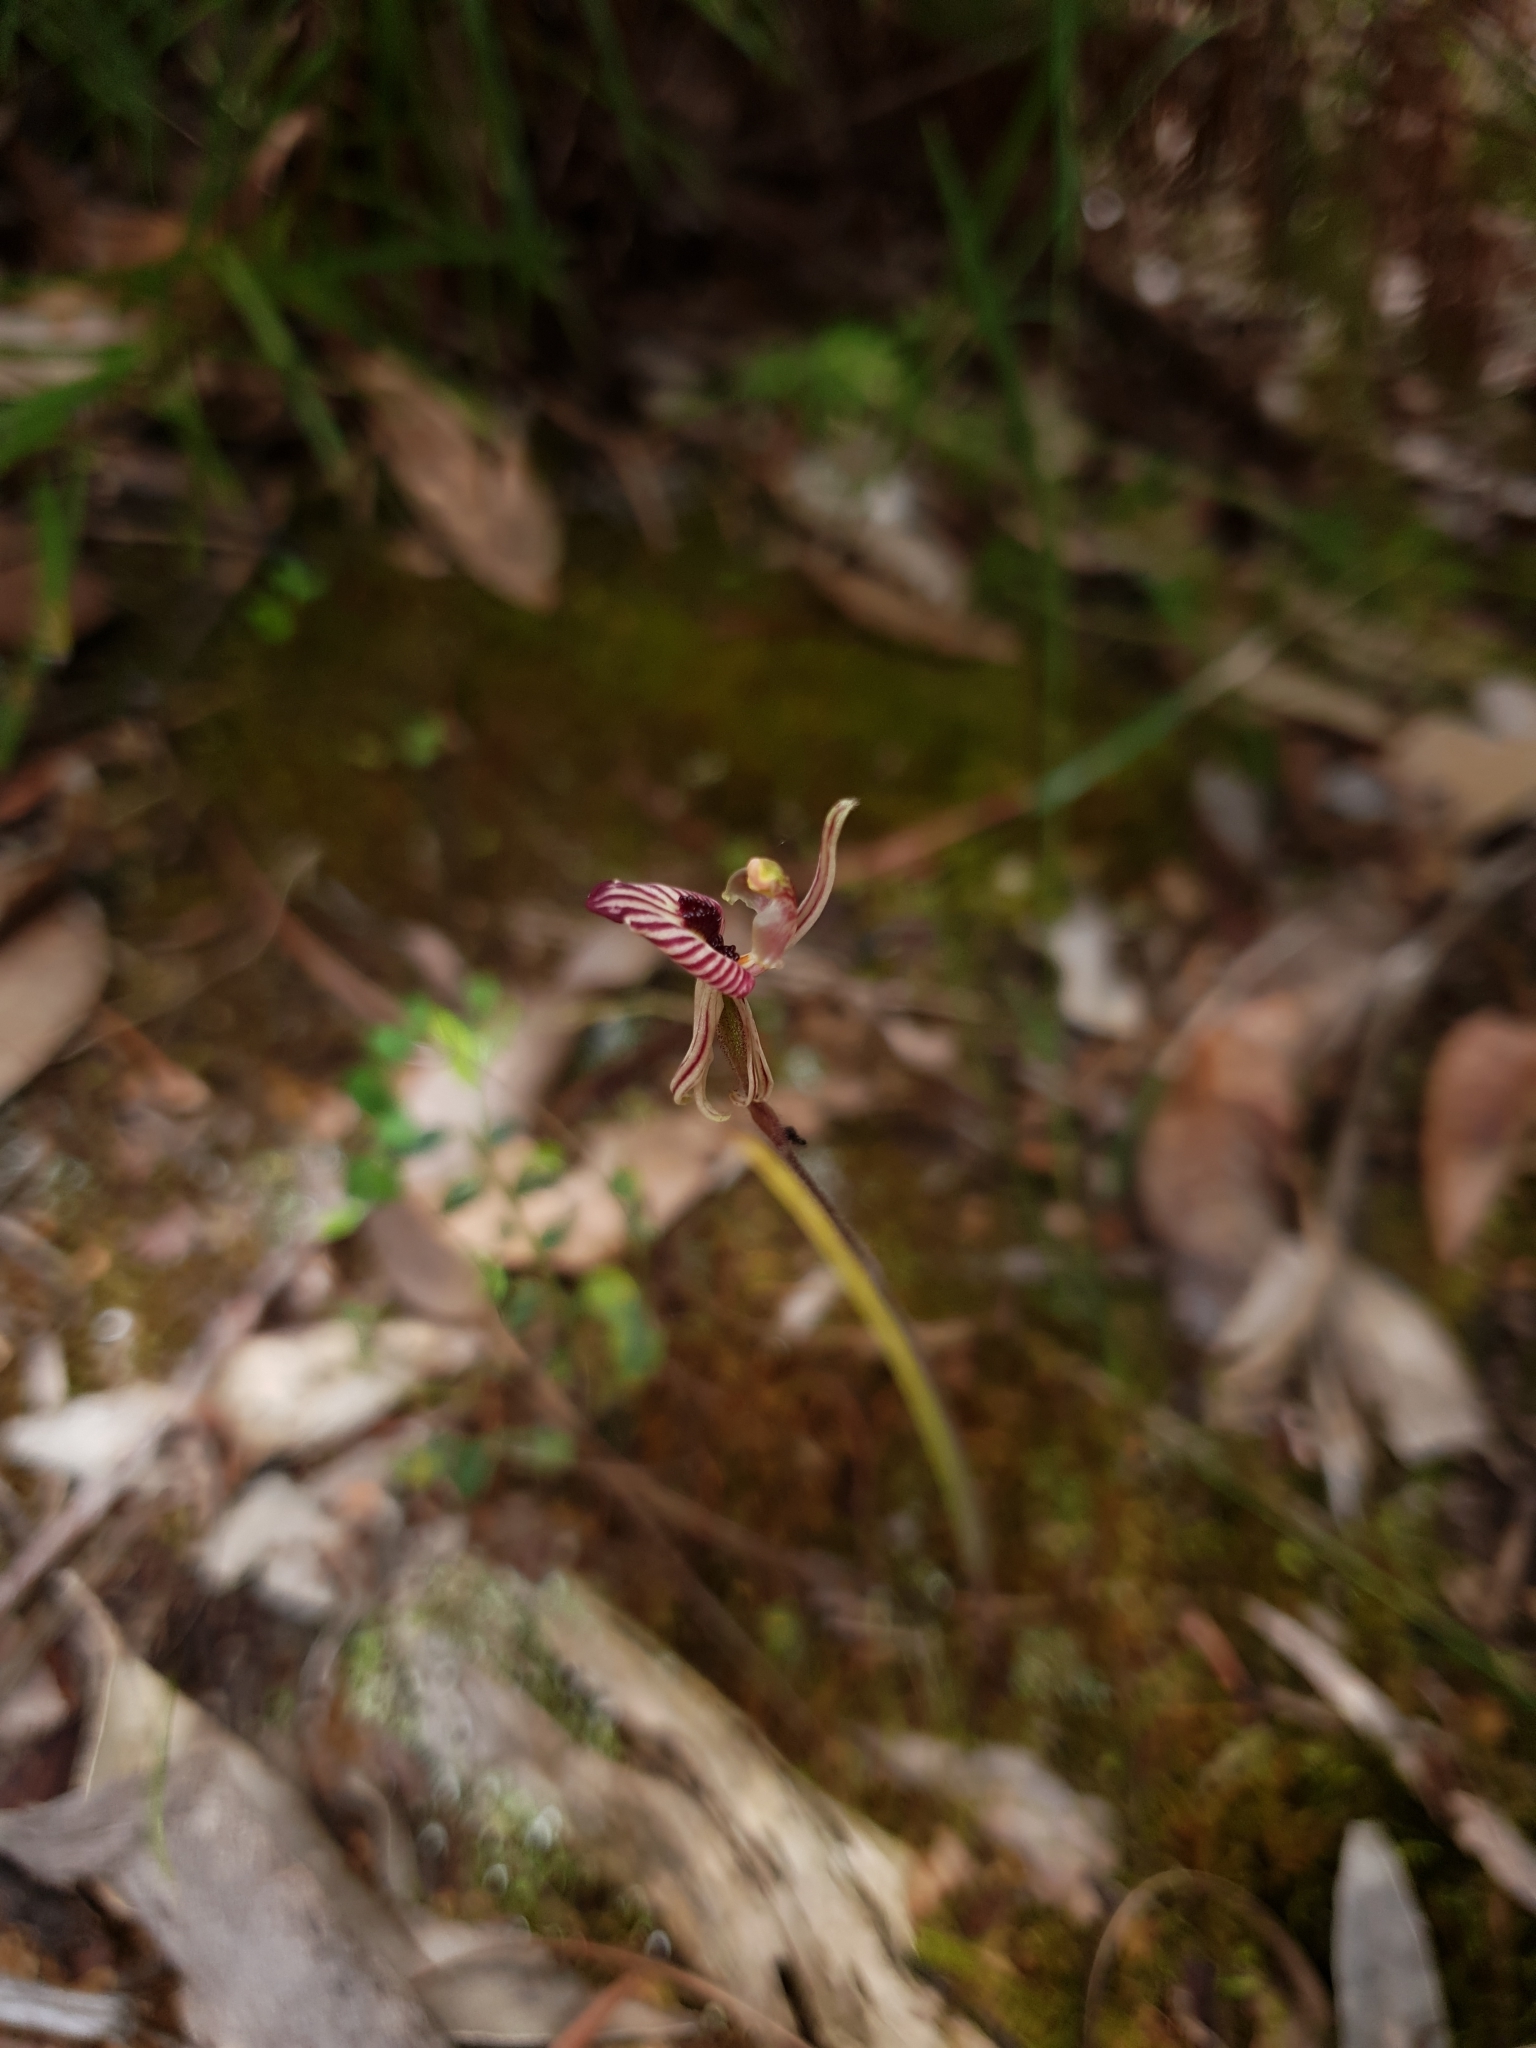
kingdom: Plantae
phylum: Tracheophyta
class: Liliopsida
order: Asparagales
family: Orchidaceae
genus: Caladenia
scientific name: Caladenia cairnsiana
